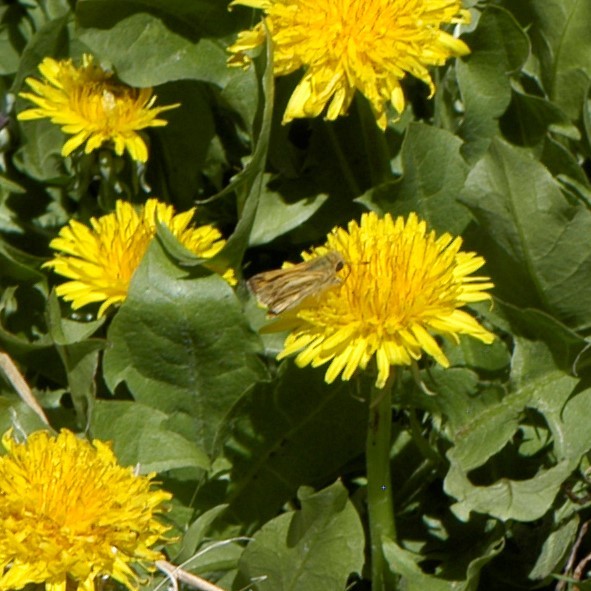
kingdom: Plantae
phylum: Tracheophyta
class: Magnoliopsida
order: Asterales
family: Asteraceae
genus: Taraxacum
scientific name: Taraxacum officinale
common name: Common dandelion
